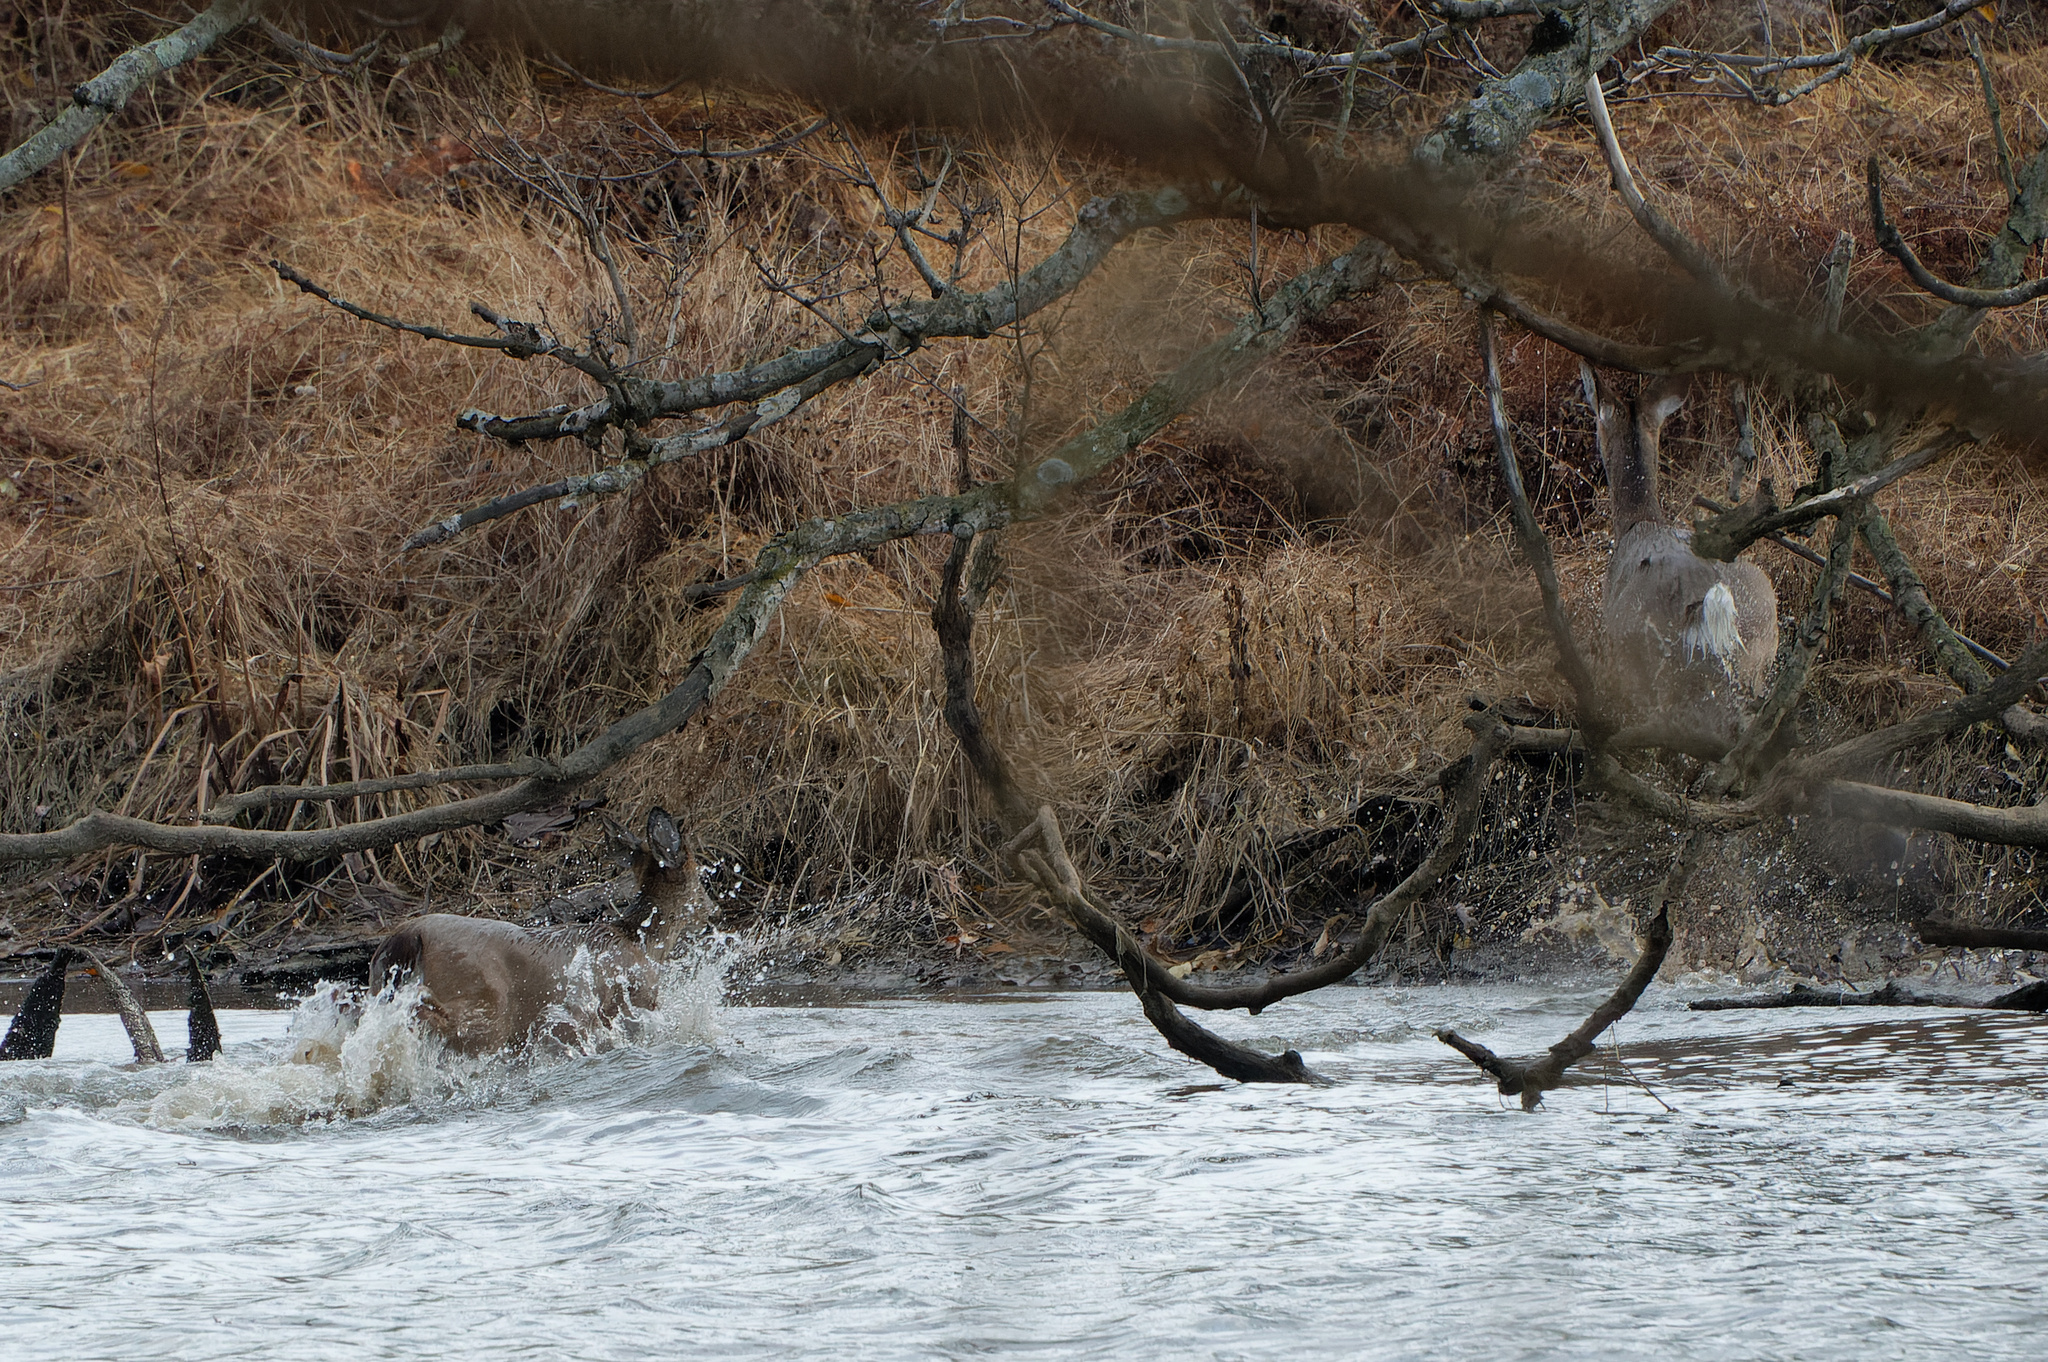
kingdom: Animalia
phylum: Chordata
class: Mammalia
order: Artiodactyla
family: Cervidae
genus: Odocoileus
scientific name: Odocoileus virginianus
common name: White-tailed deer
